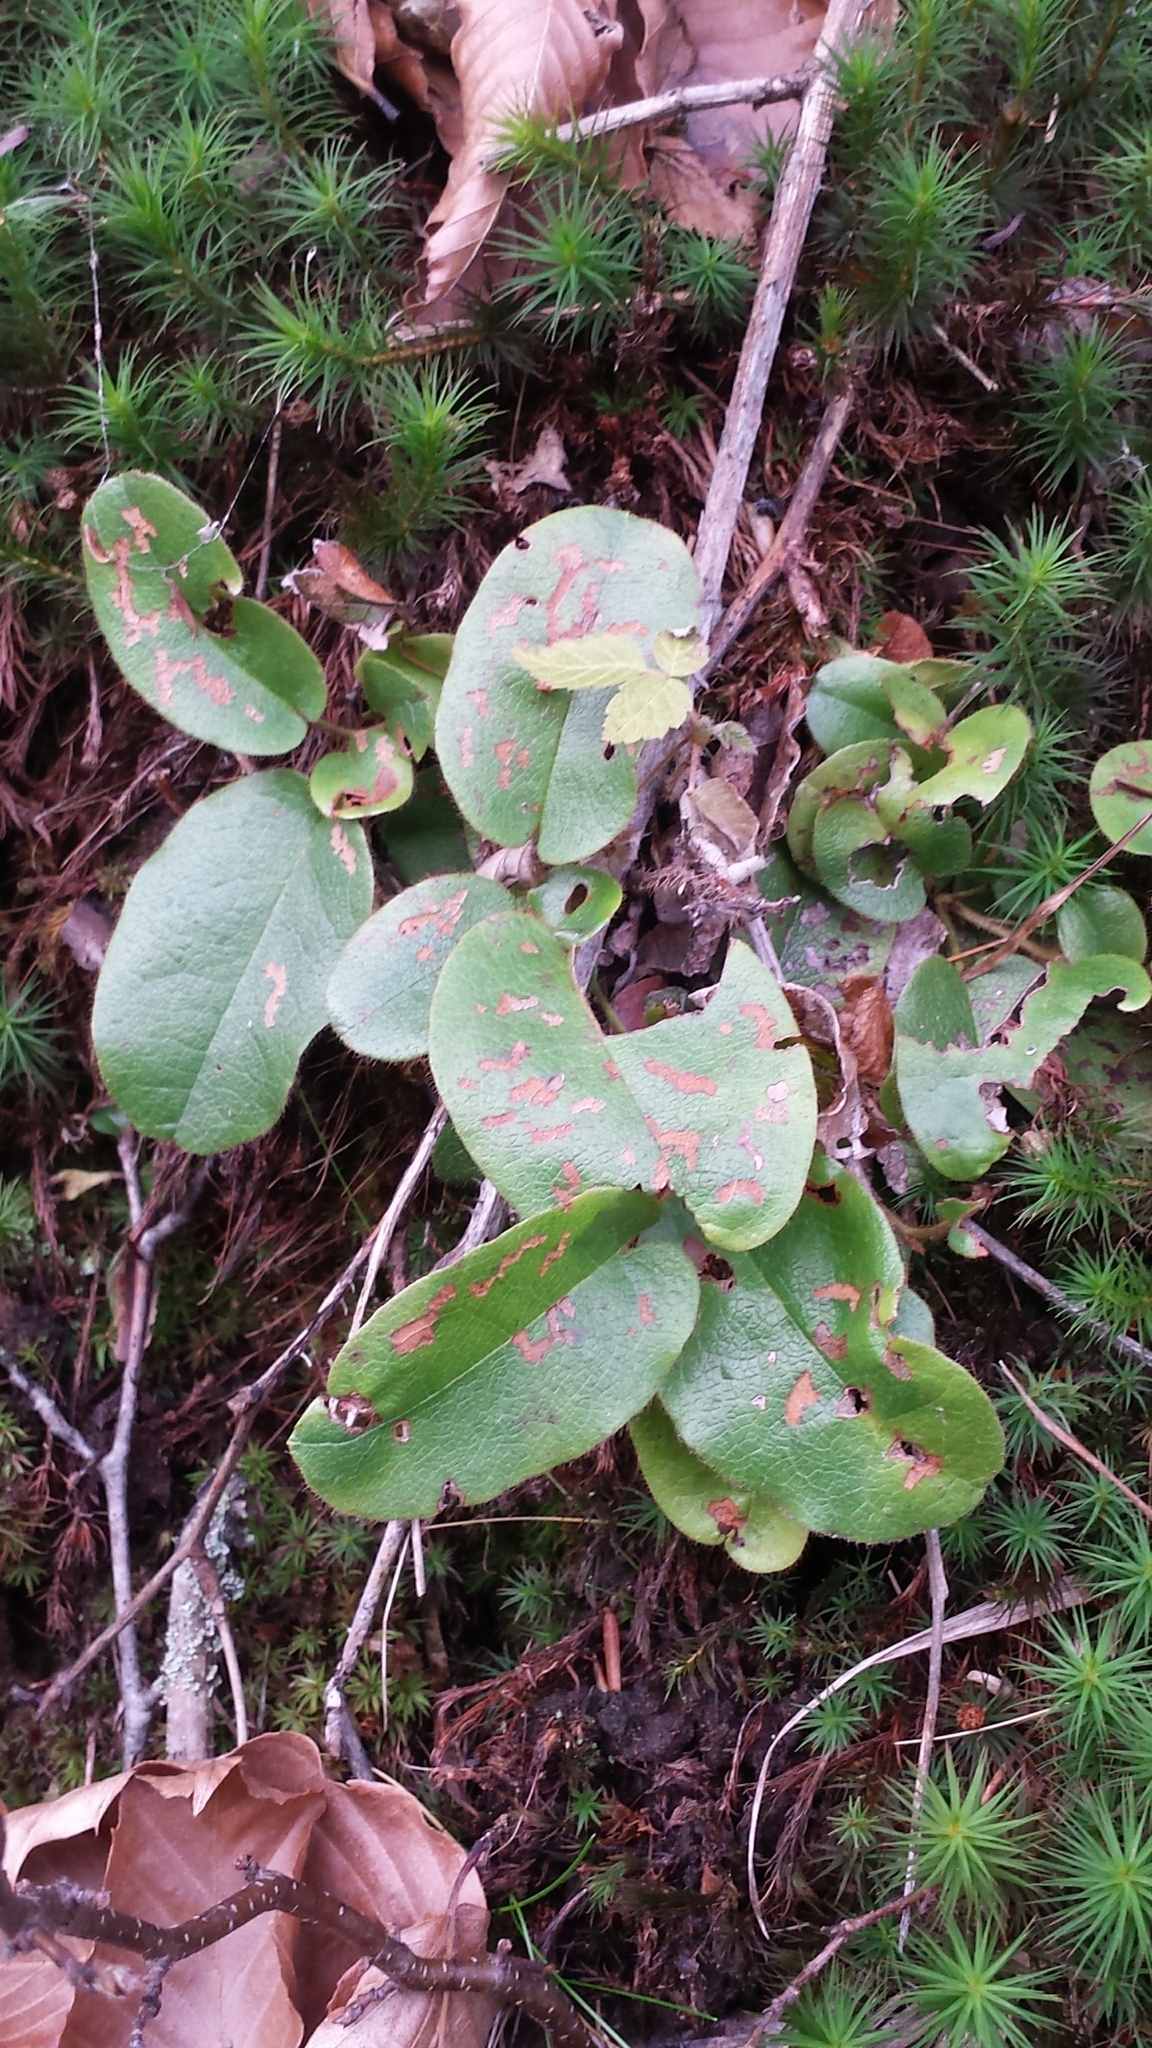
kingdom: Plantae
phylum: Tracheophyta
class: Magnoliopsida
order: Ericales
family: Ericaceae
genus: Epigaea
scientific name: Epigaea repens
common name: Gravelroot
